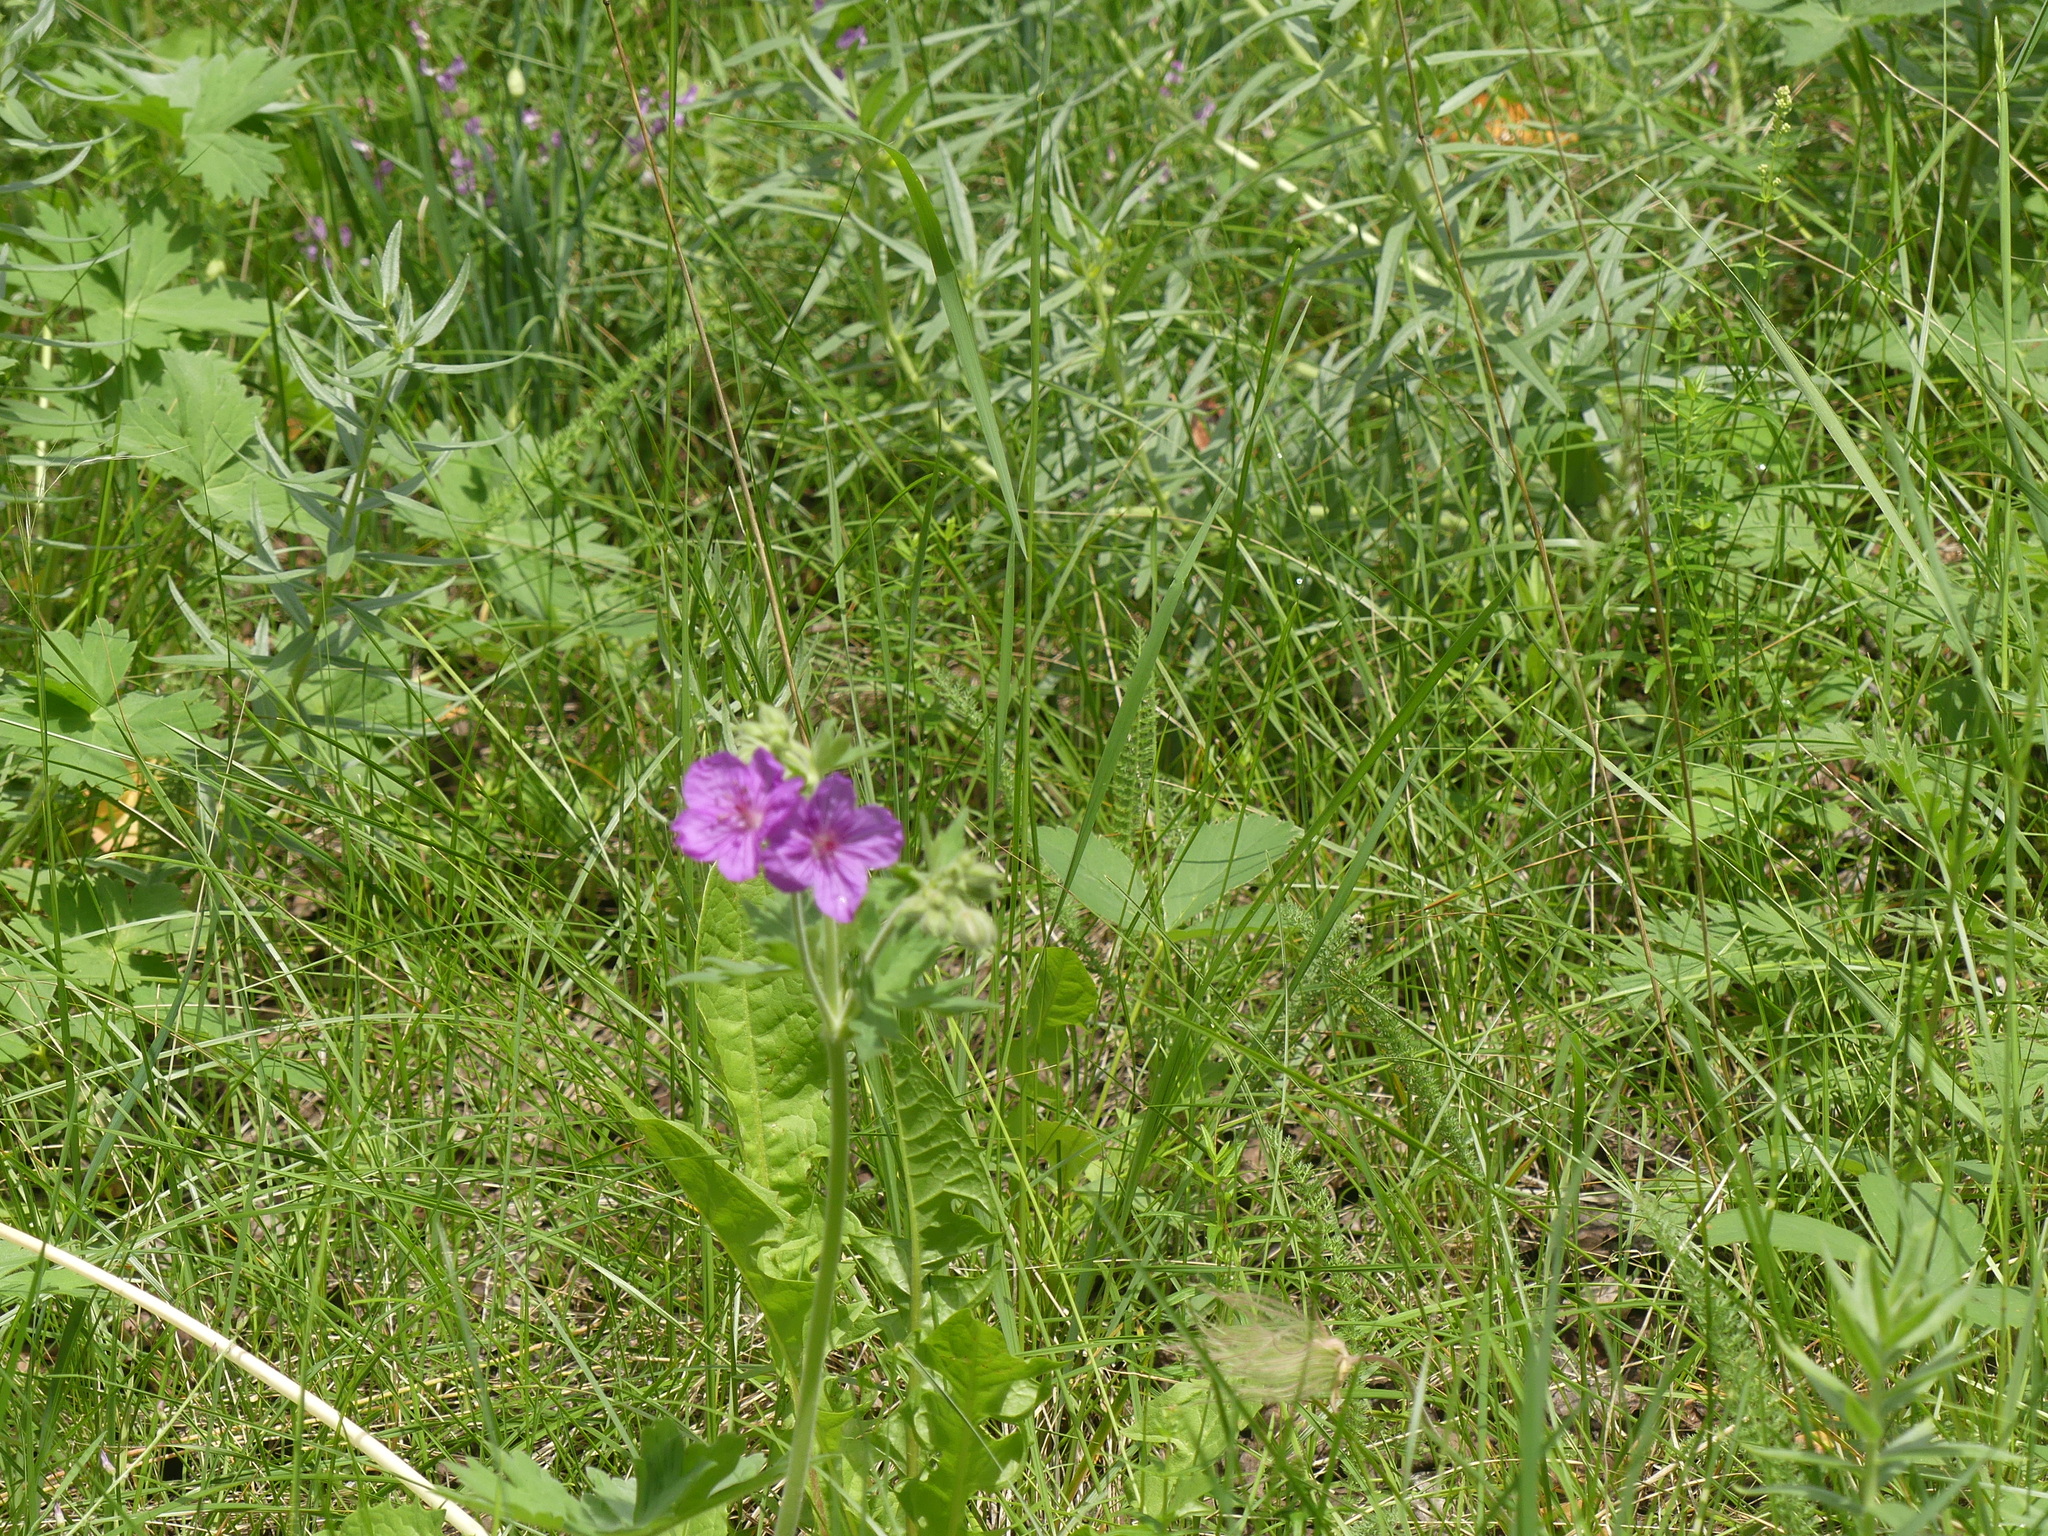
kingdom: Plantae
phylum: Tracheophyta
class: Magnoliopsida
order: Geraniales
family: Geraniaceae
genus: Geranium
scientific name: Geranium viscosissimum
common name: Purple geranium
